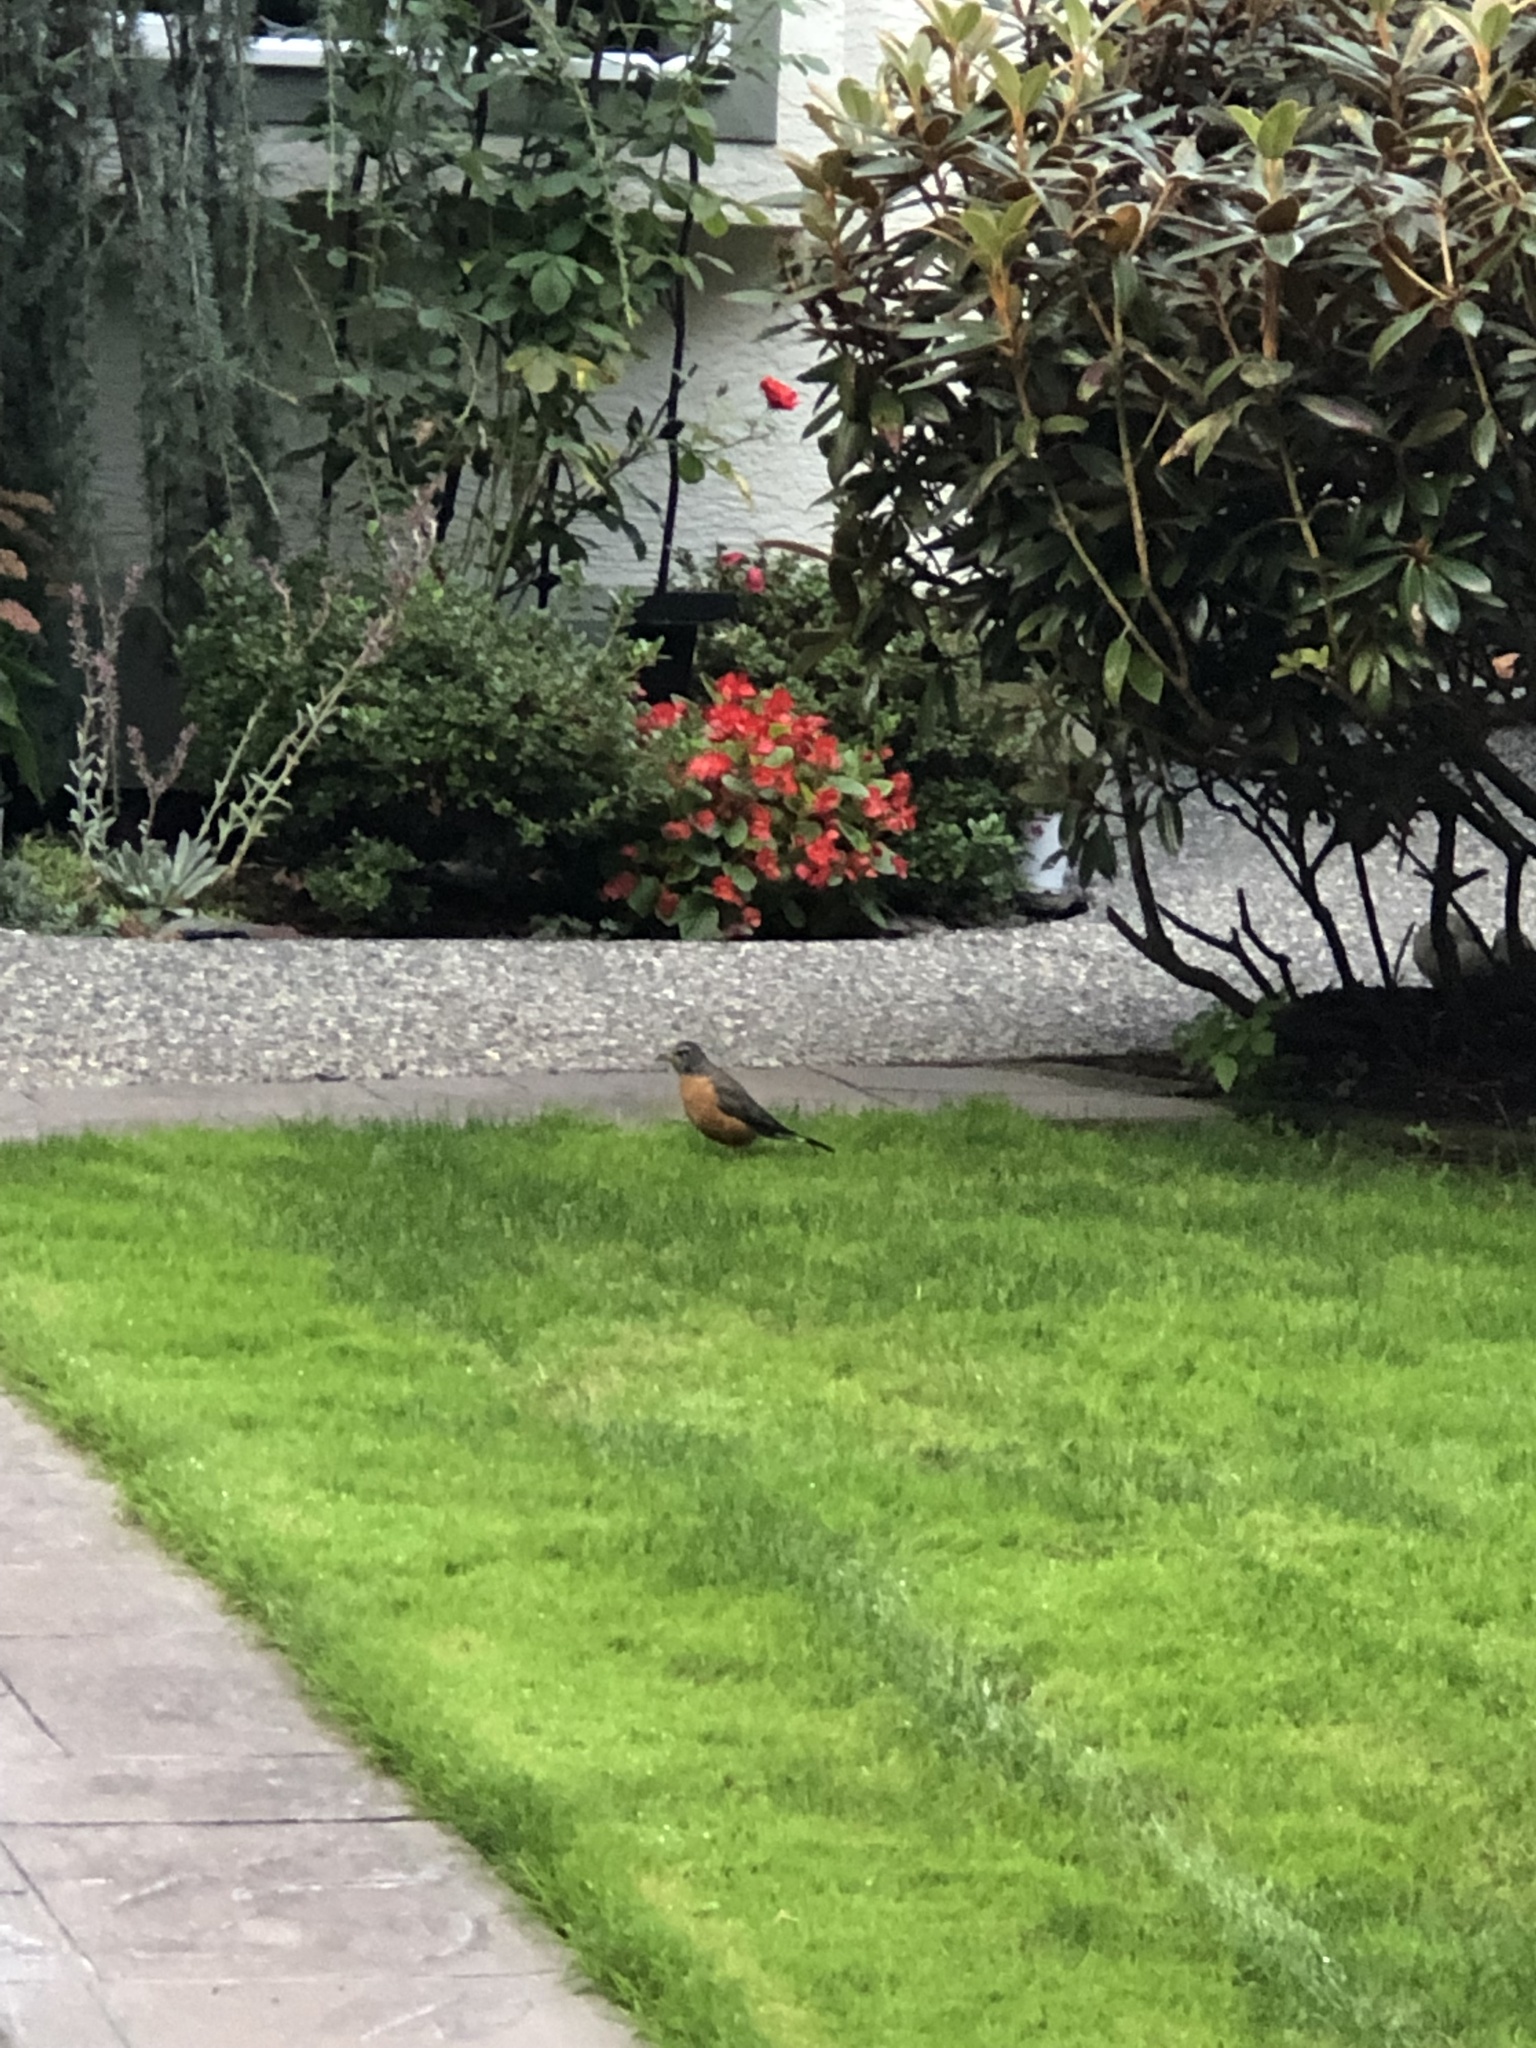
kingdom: Animalia
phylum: Chordata
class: Aves
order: Passeriformes
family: Turdidae
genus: Turdus
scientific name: Turdus migratorius
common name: American robin
